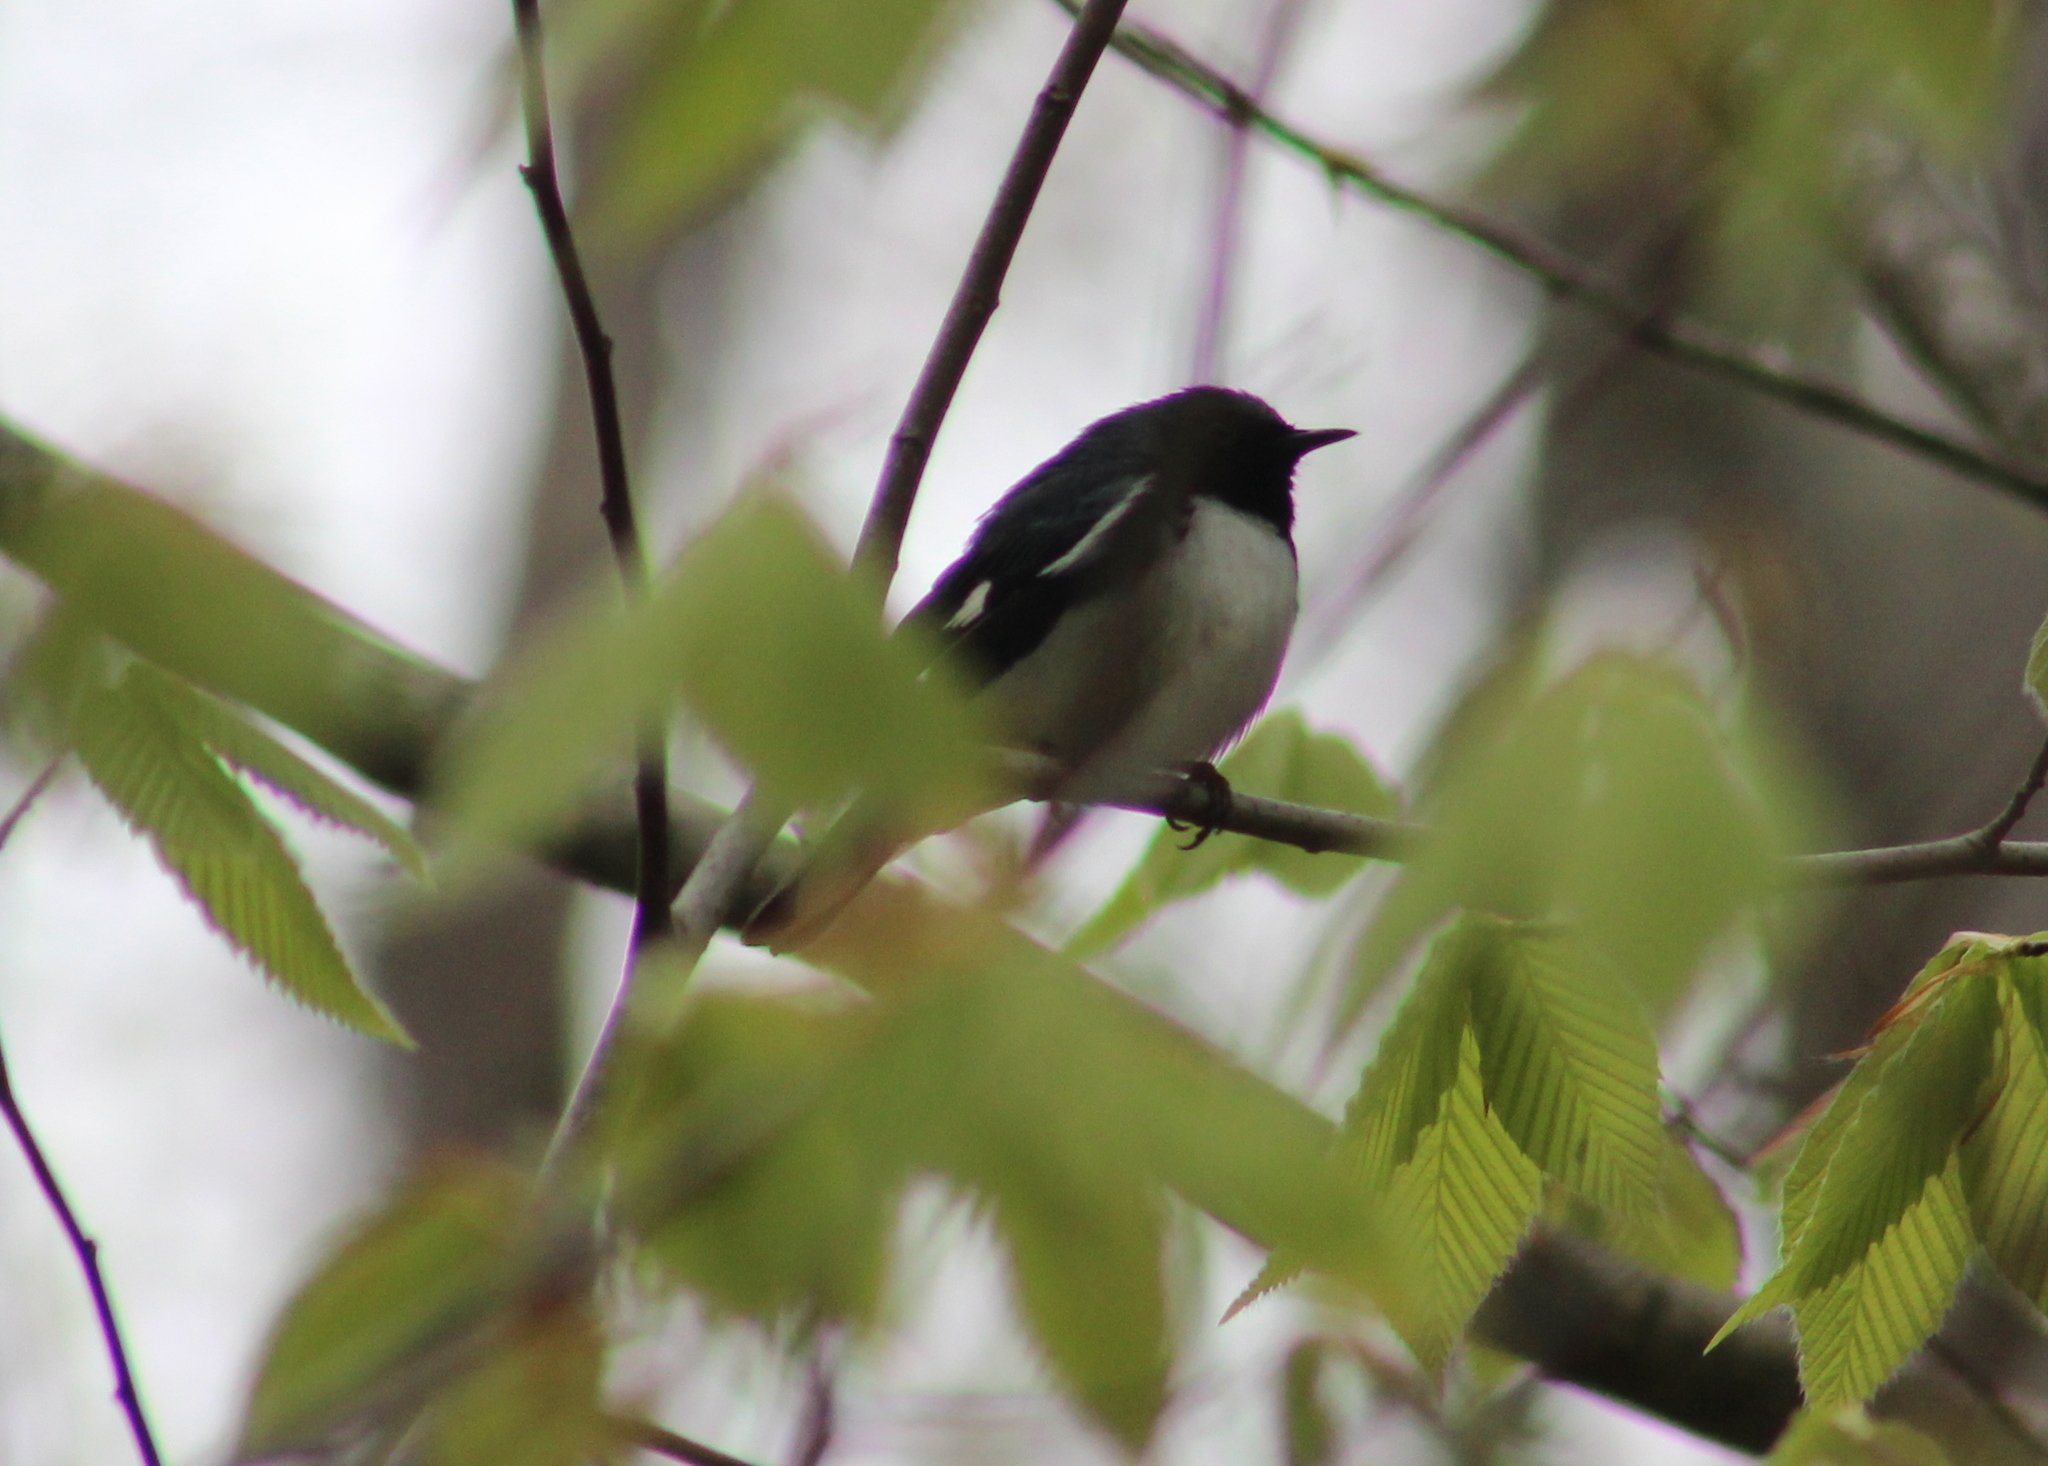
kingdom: Animalia
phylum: Chordata
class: Aves
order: Passeriformes
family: Parulidae
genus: Setophaga
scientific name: Setophaga caerulescens
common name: Black-throated blue warbler
